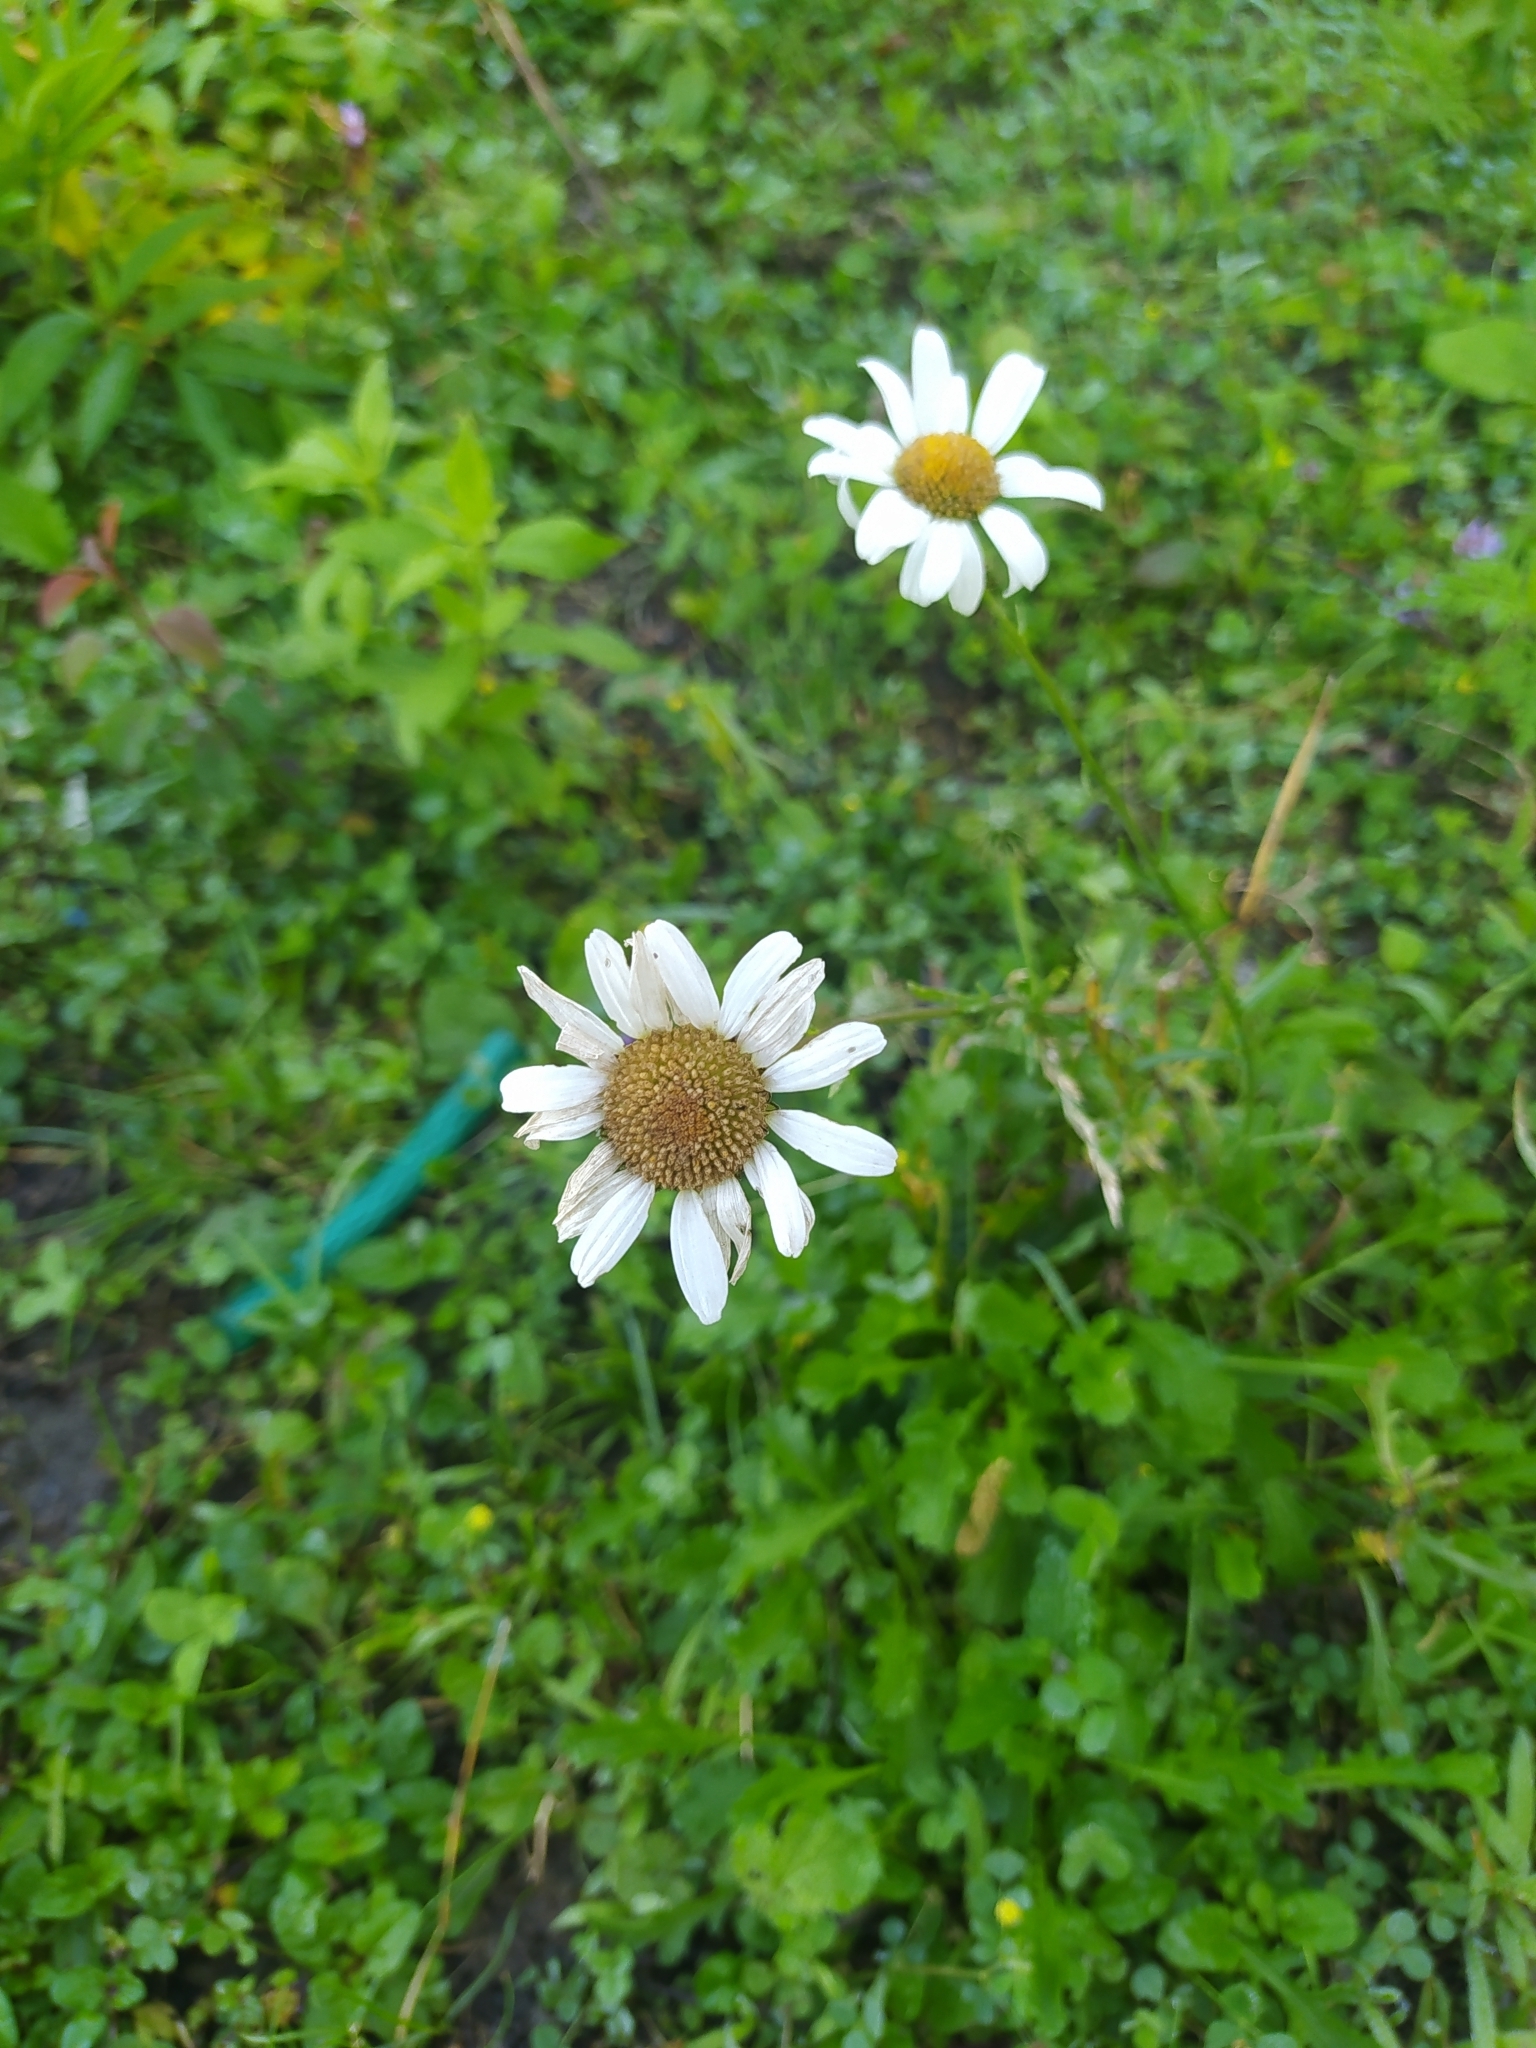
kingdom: Plantae
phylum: Tracheophyta
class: Magnoliopsida
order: Asterales
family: Asteraceae
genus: Leucanthemum
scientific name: Leucanthemum vulgare
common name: Oxeye daisy
